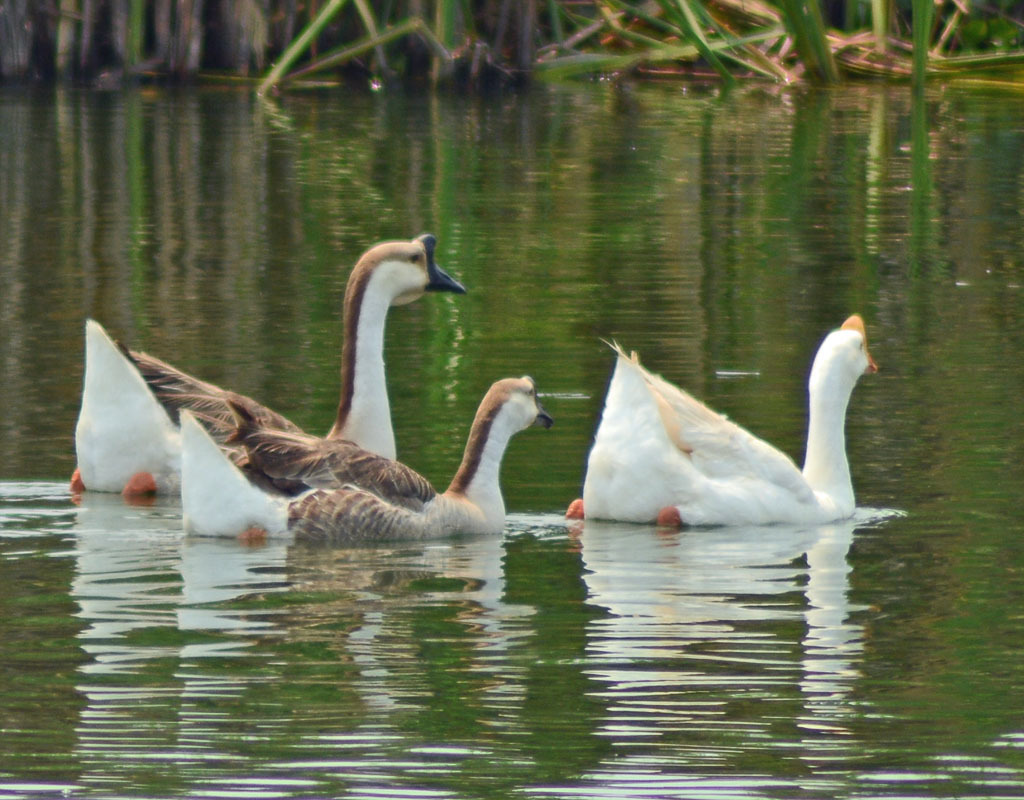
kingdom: Animalia
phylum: Chordata
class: Aves
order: Anseriformes
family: Anatidae
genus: Anser
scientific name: Anser cygnoides
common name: Swan goose
